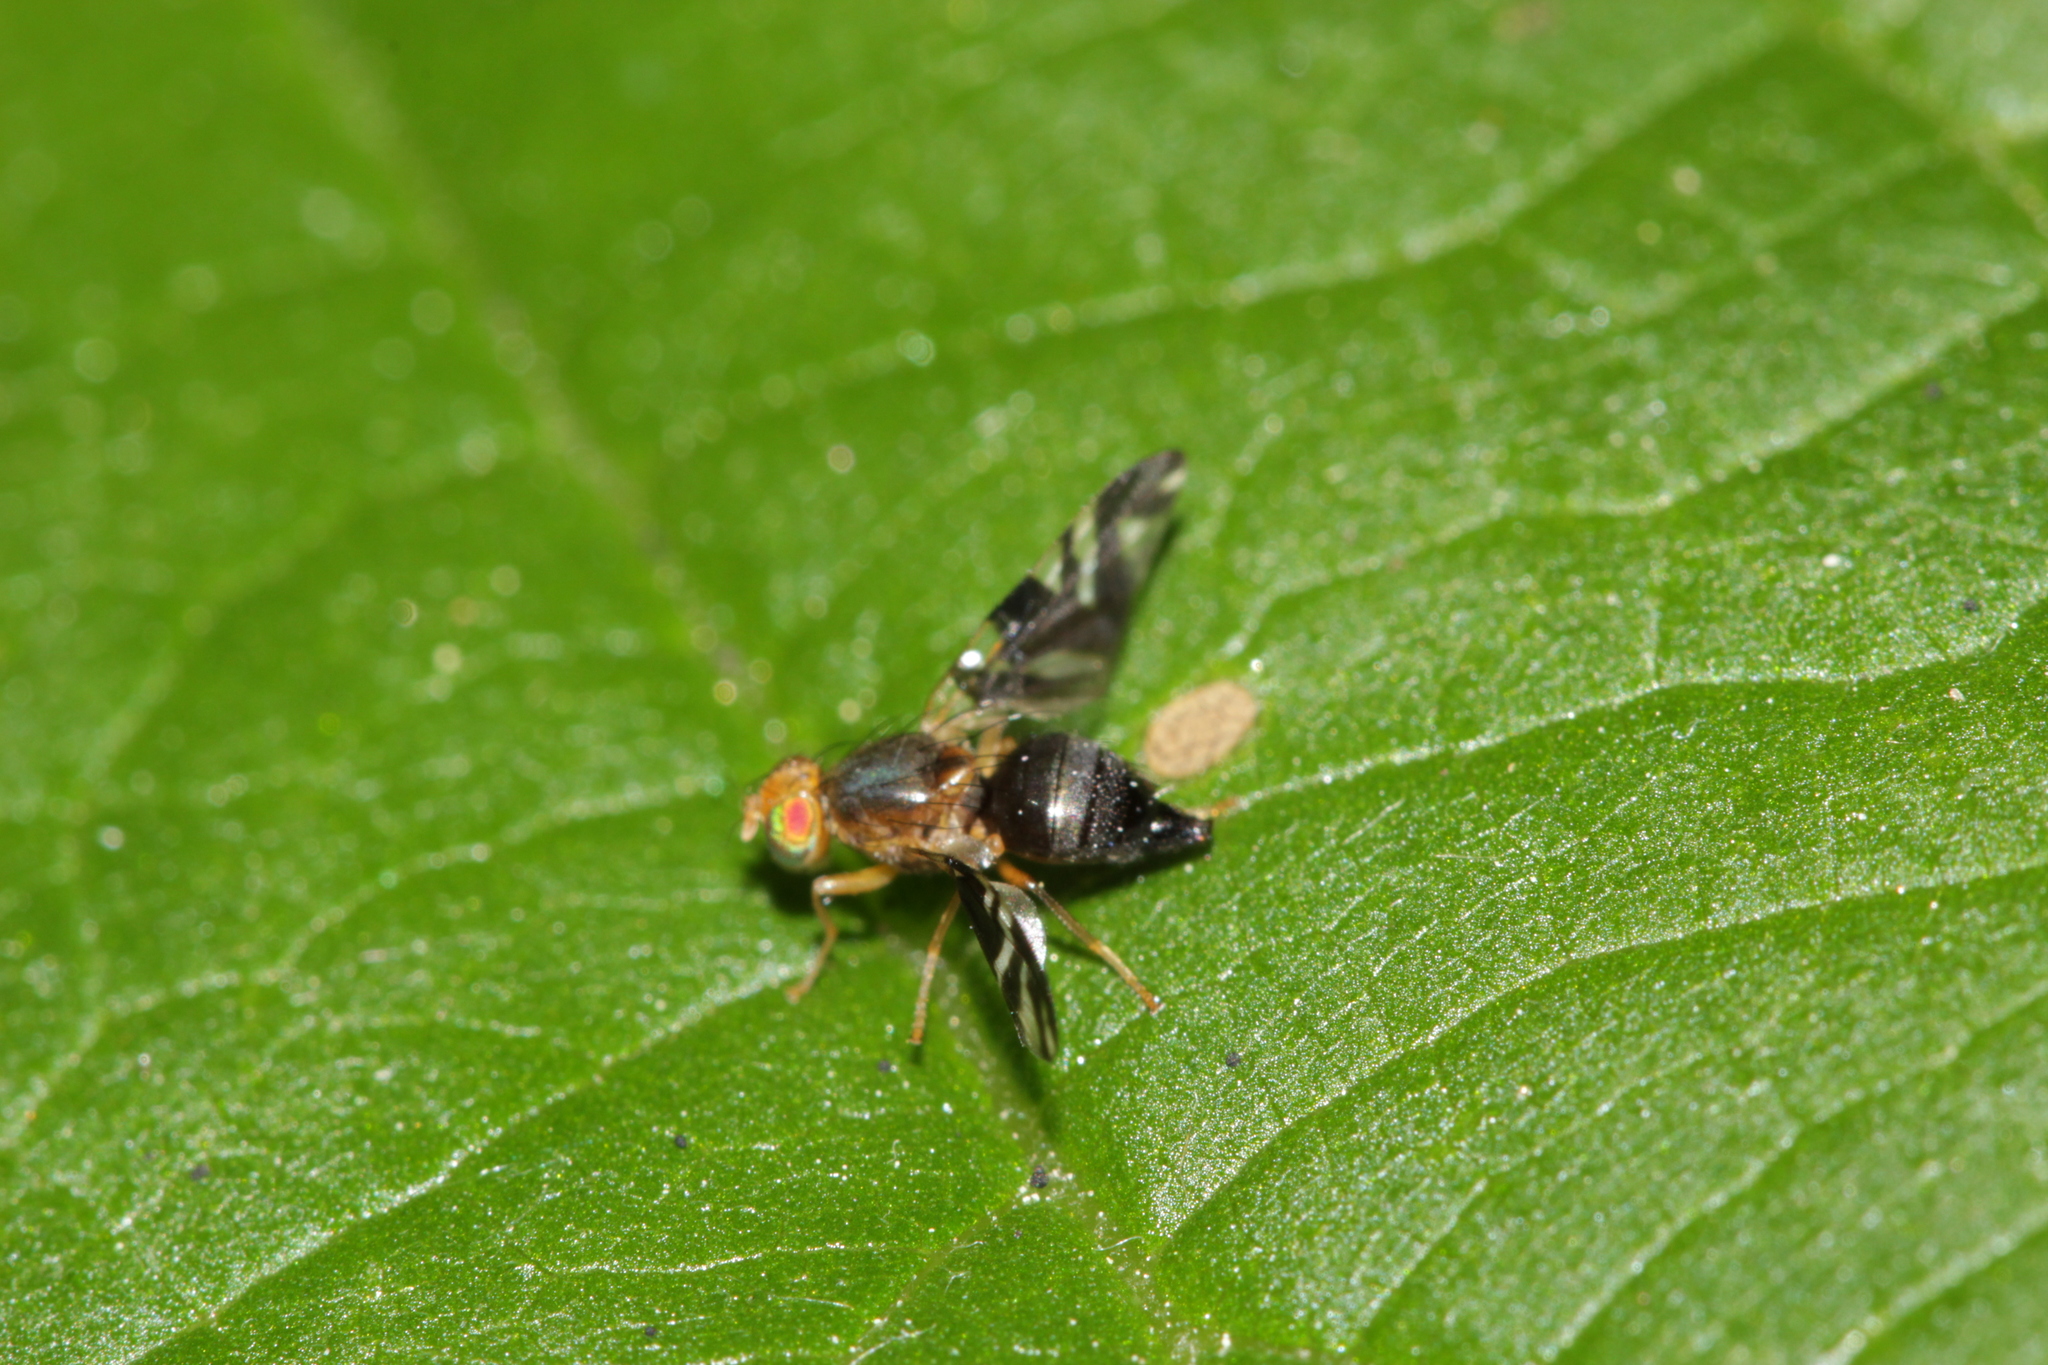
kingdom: Animalia
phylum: Arthropoda
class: Insecta
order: Diptera
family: Tephritidae
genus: Philophylla
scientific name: Philophylla caesio
